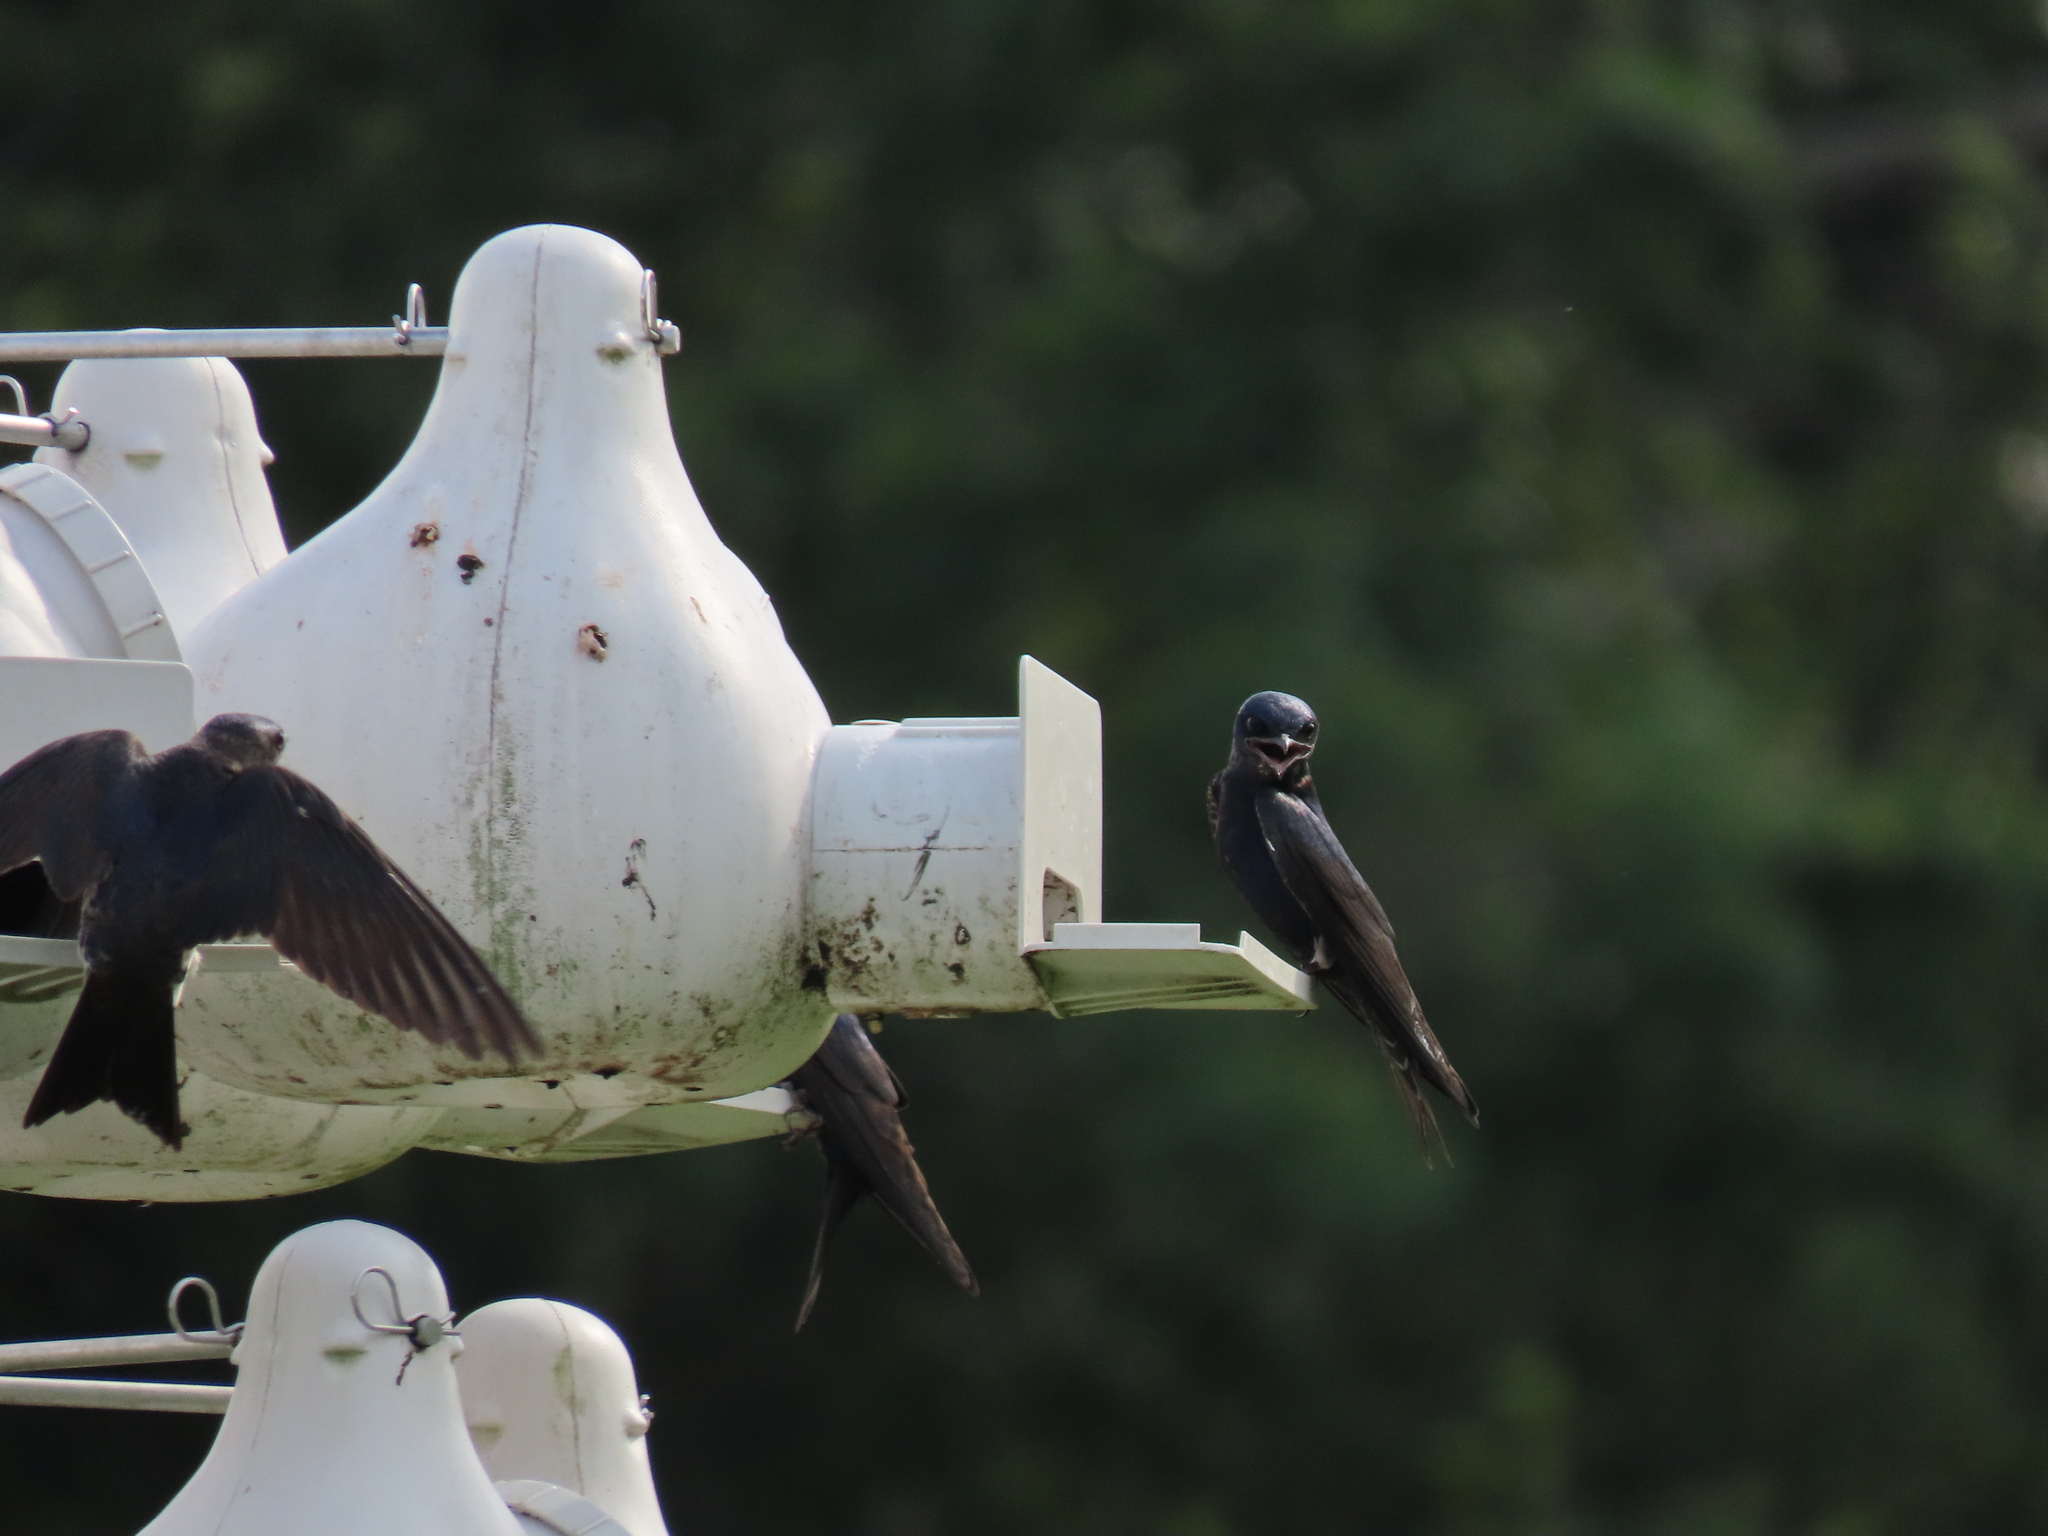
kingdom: Animalia
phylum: Chordata
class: Aves
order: Passeriformes
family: Hirundinidae
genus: Progne
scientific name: Progne subis
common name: Purple martin
